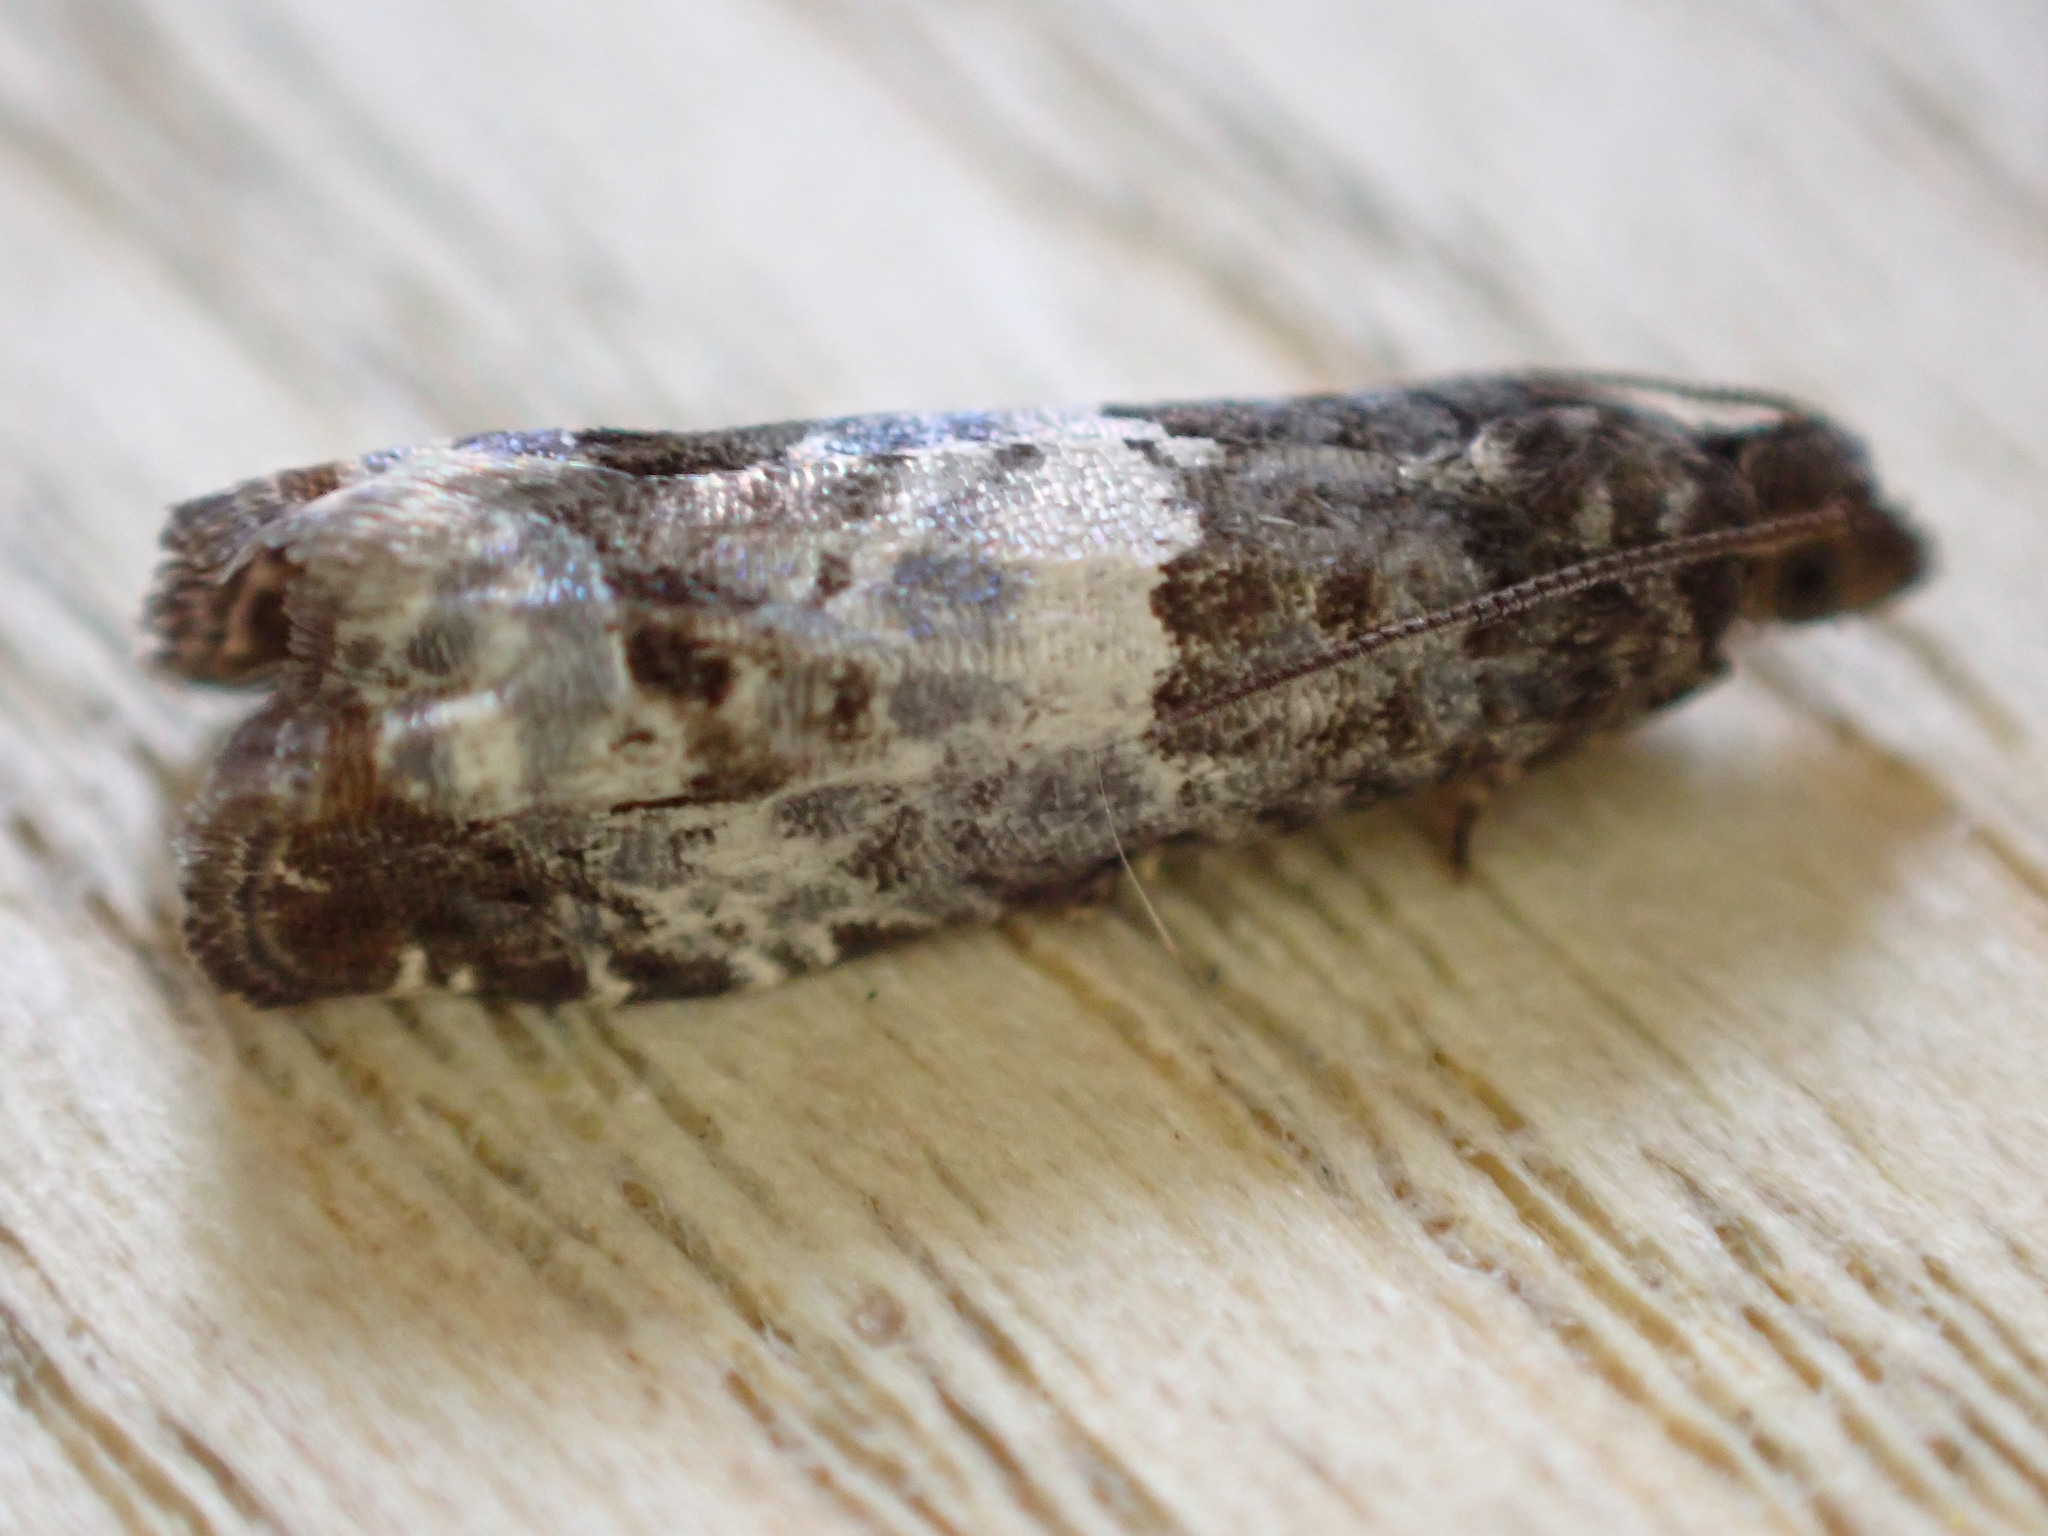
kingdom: Animalia
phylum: Arthropoda
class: Insecta
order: Lepidoptera
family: Tortricidae
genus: Notocelia
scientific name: Notocelia rosaecolana
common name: Common rose bell
